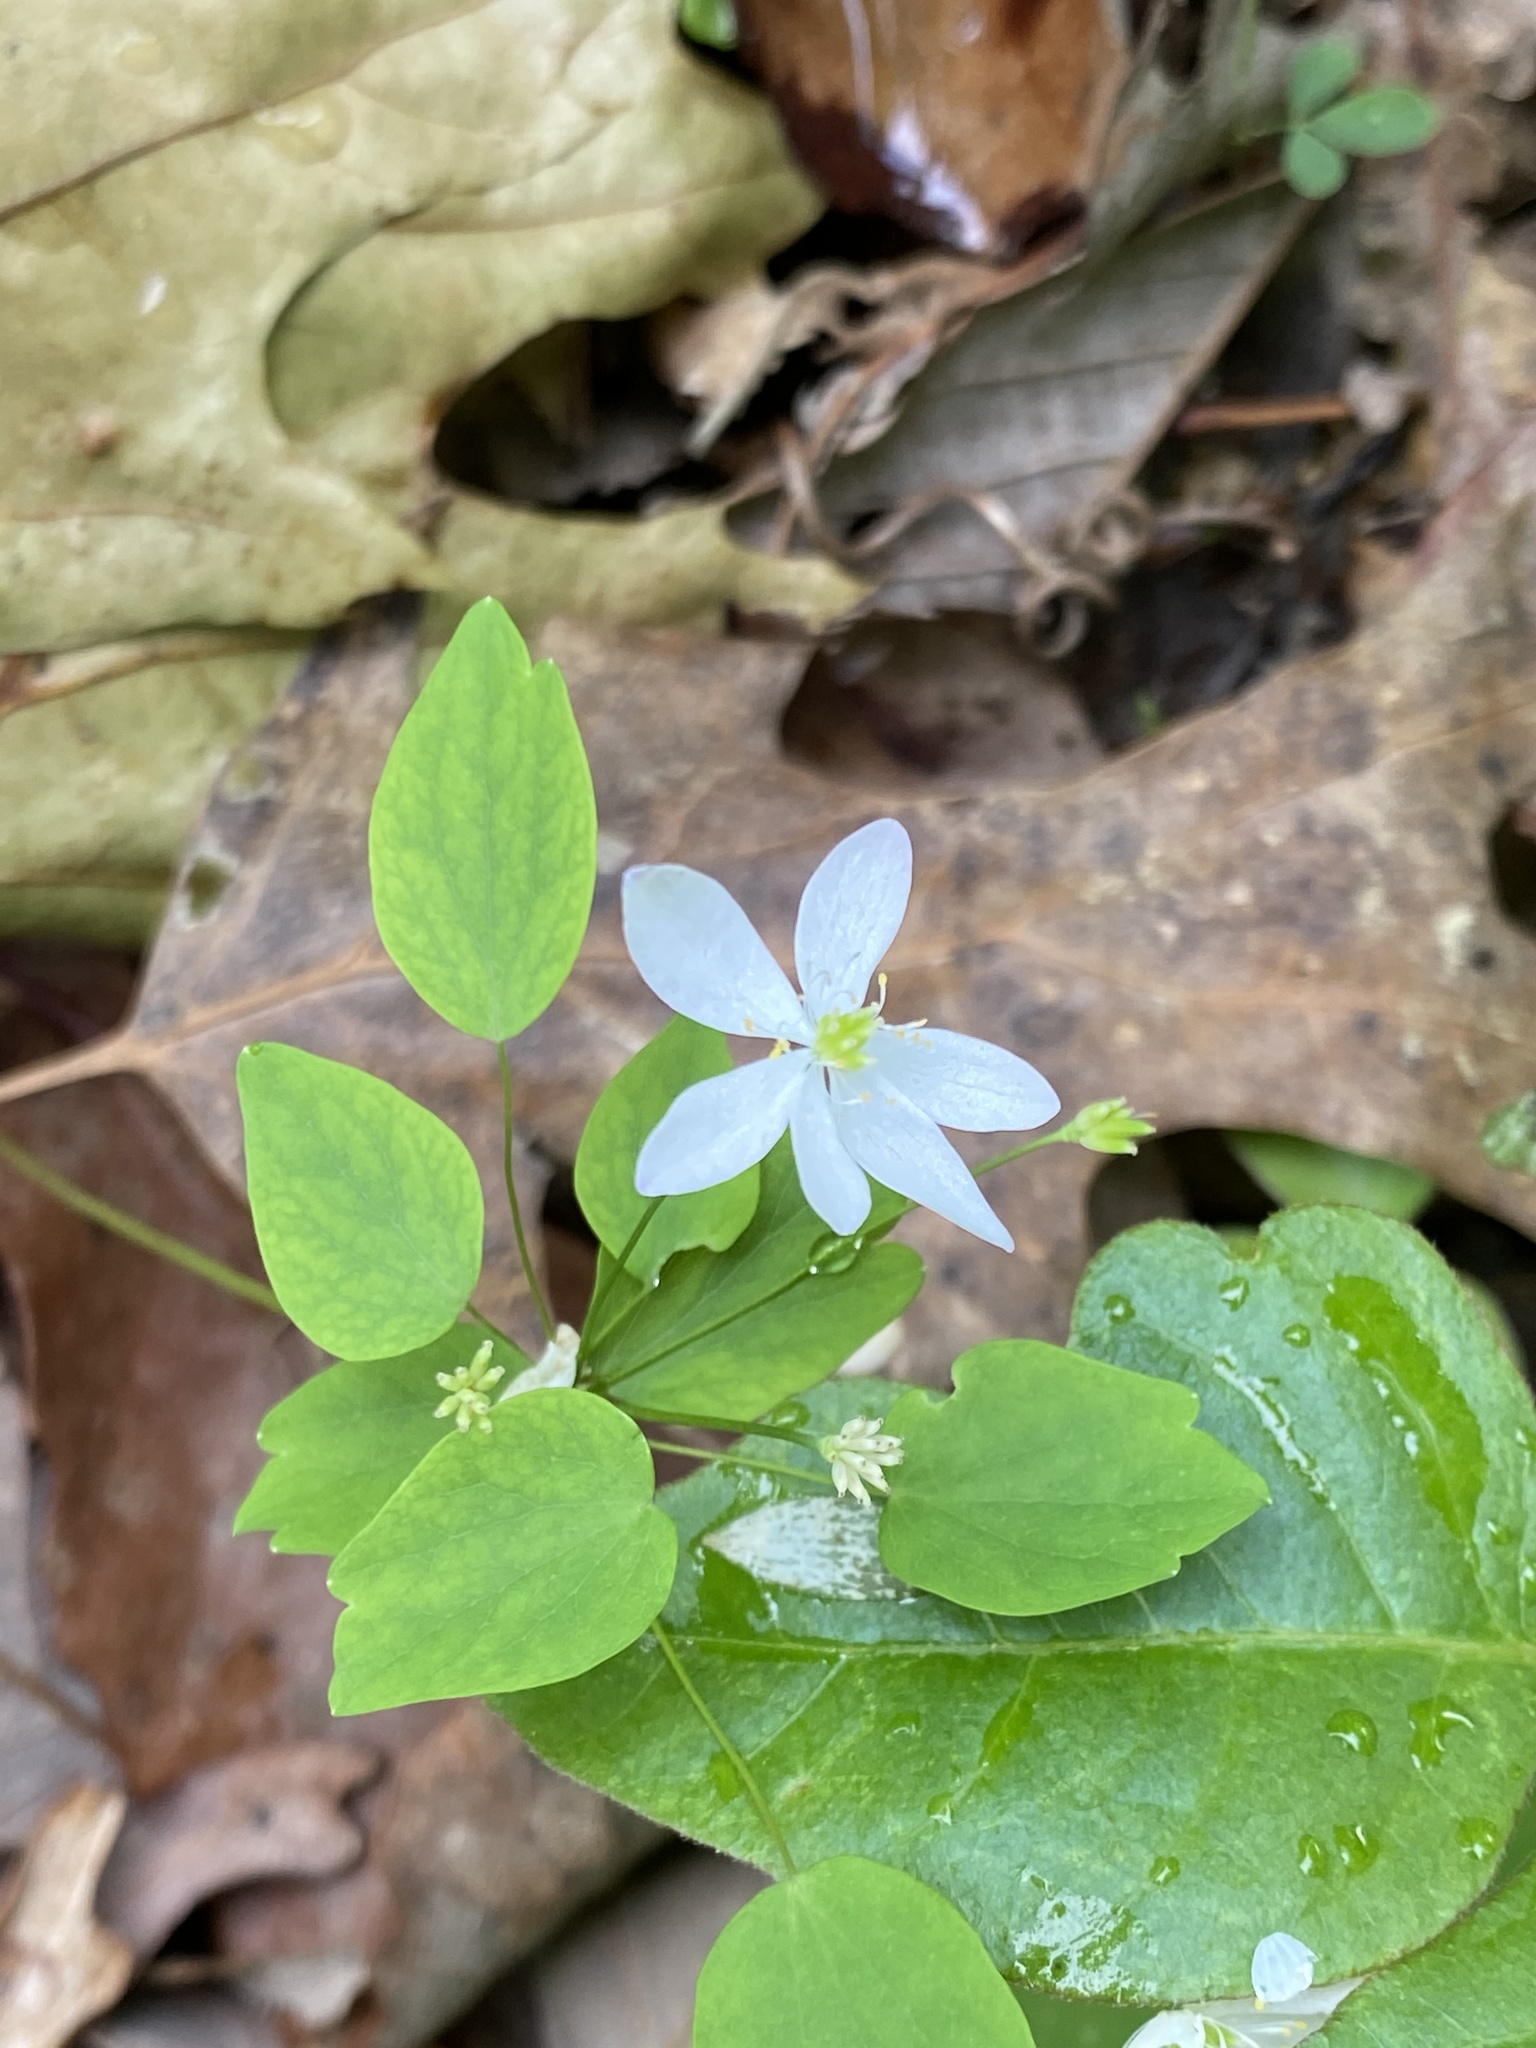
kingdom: Plantae
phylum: Tracheophyta
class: Magnoliopsida
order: Ranunculales
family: Ranunculaceae
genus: Thalictrum
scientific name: Thalictrum thalictroides
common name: Rue-anemone
